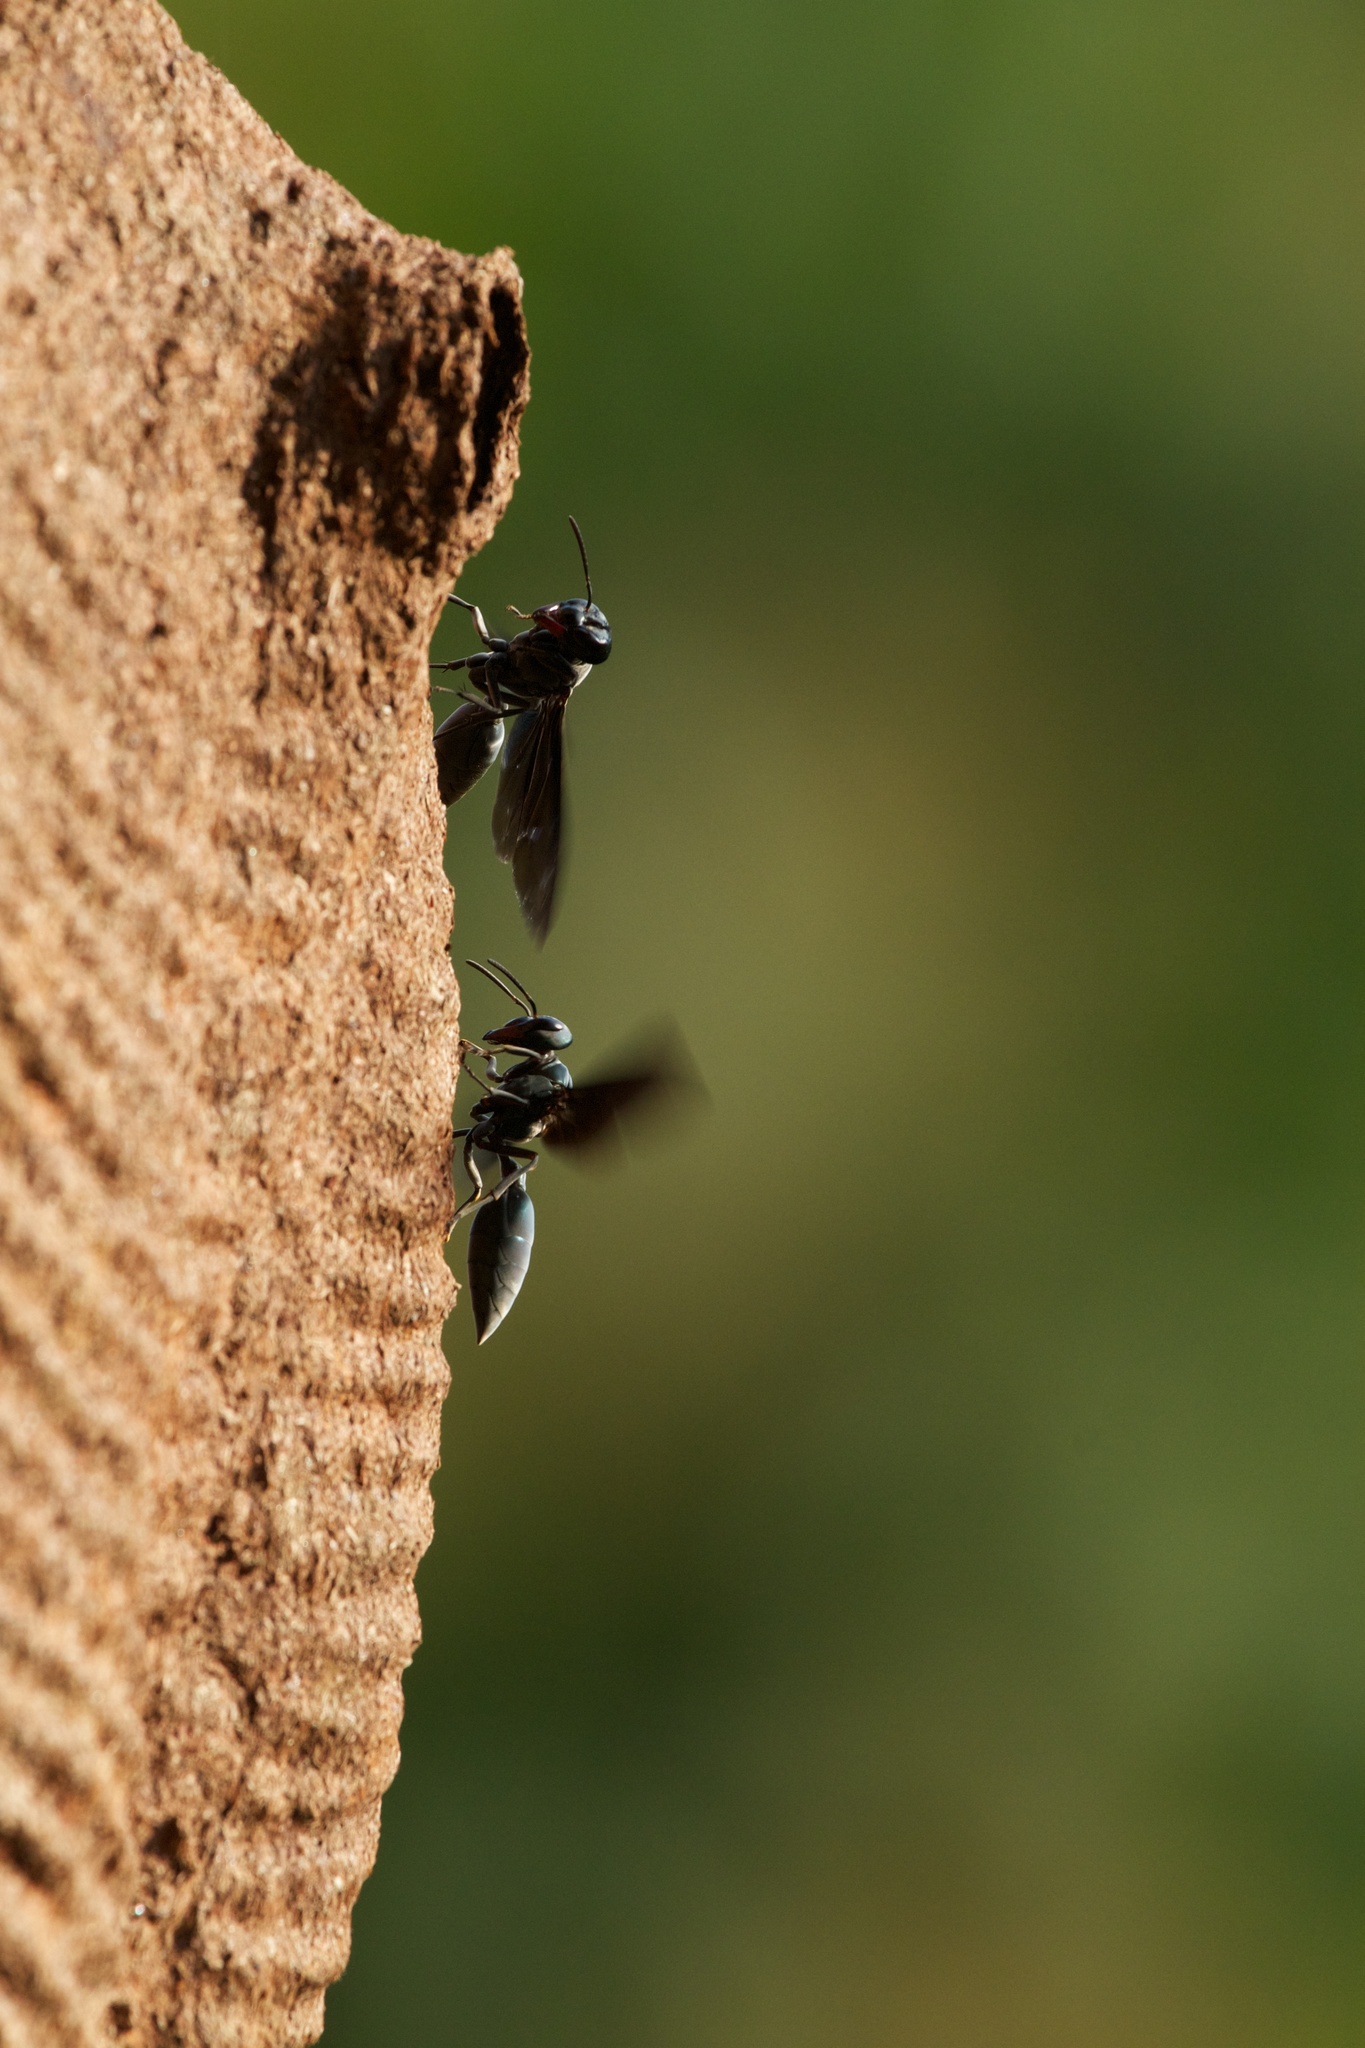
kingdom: Animalia
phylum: Arthropoda
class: Insecta
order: Hymenoptera
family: Vespidae
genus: Synoeca
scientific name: Synoeca septentrionalis
